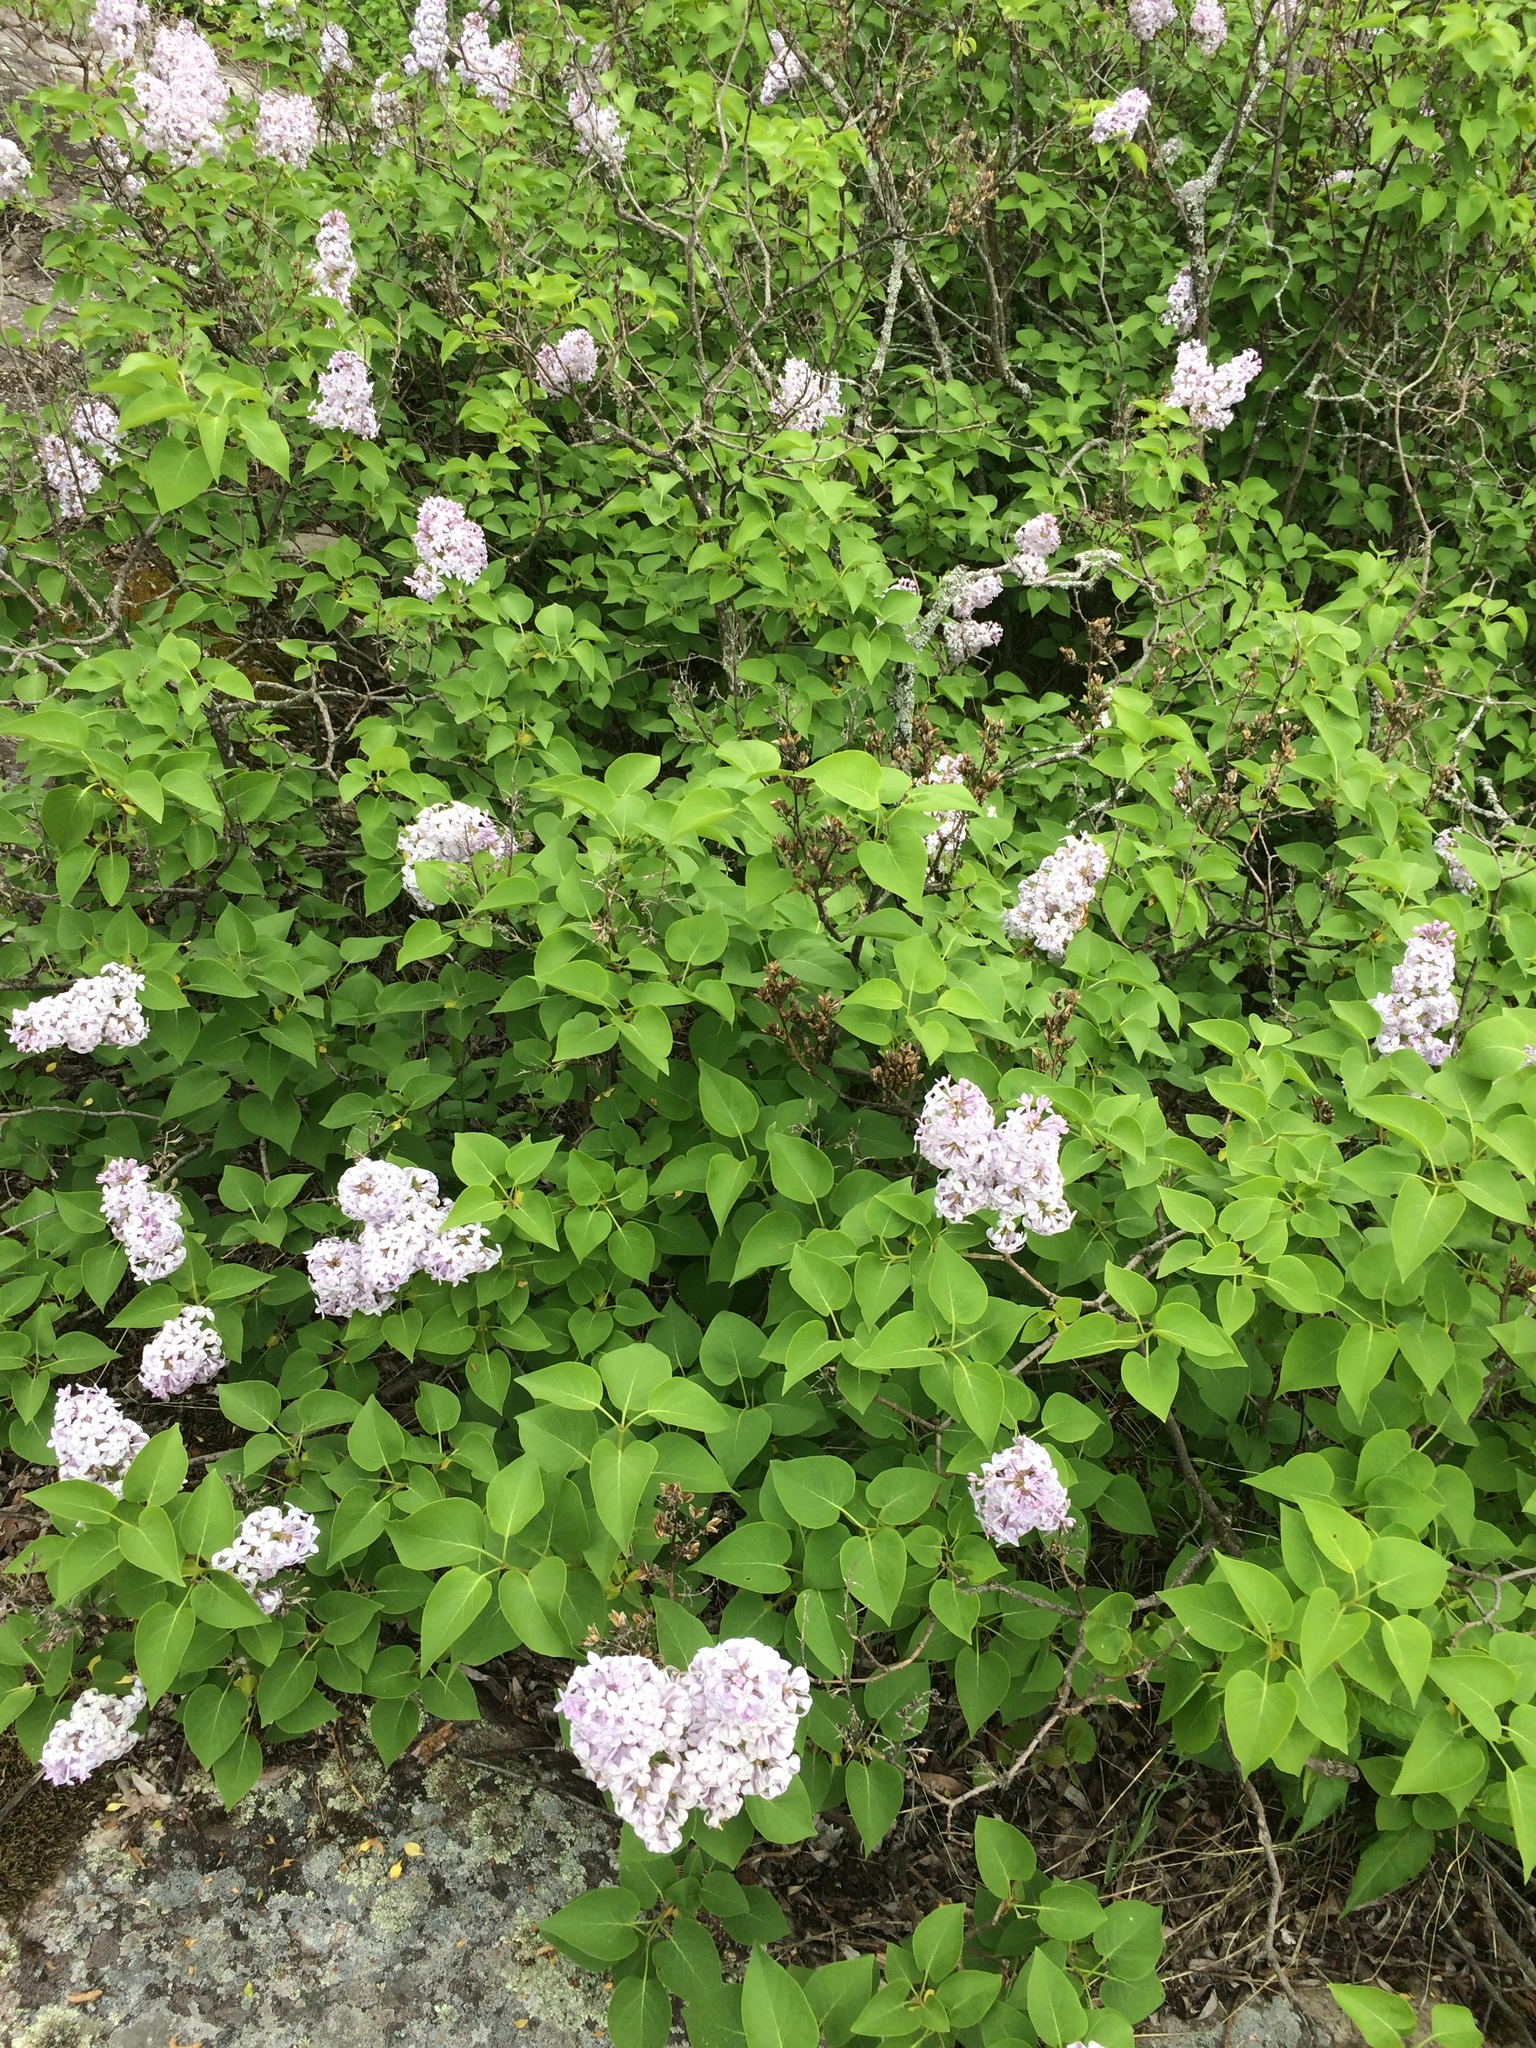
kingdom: Plantae
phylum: Tracheophyta
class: Magnoliopsida
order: Lamiales
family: Oleaceae
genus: Syringa
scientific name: Syringa vulgaris
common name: Common lilac
